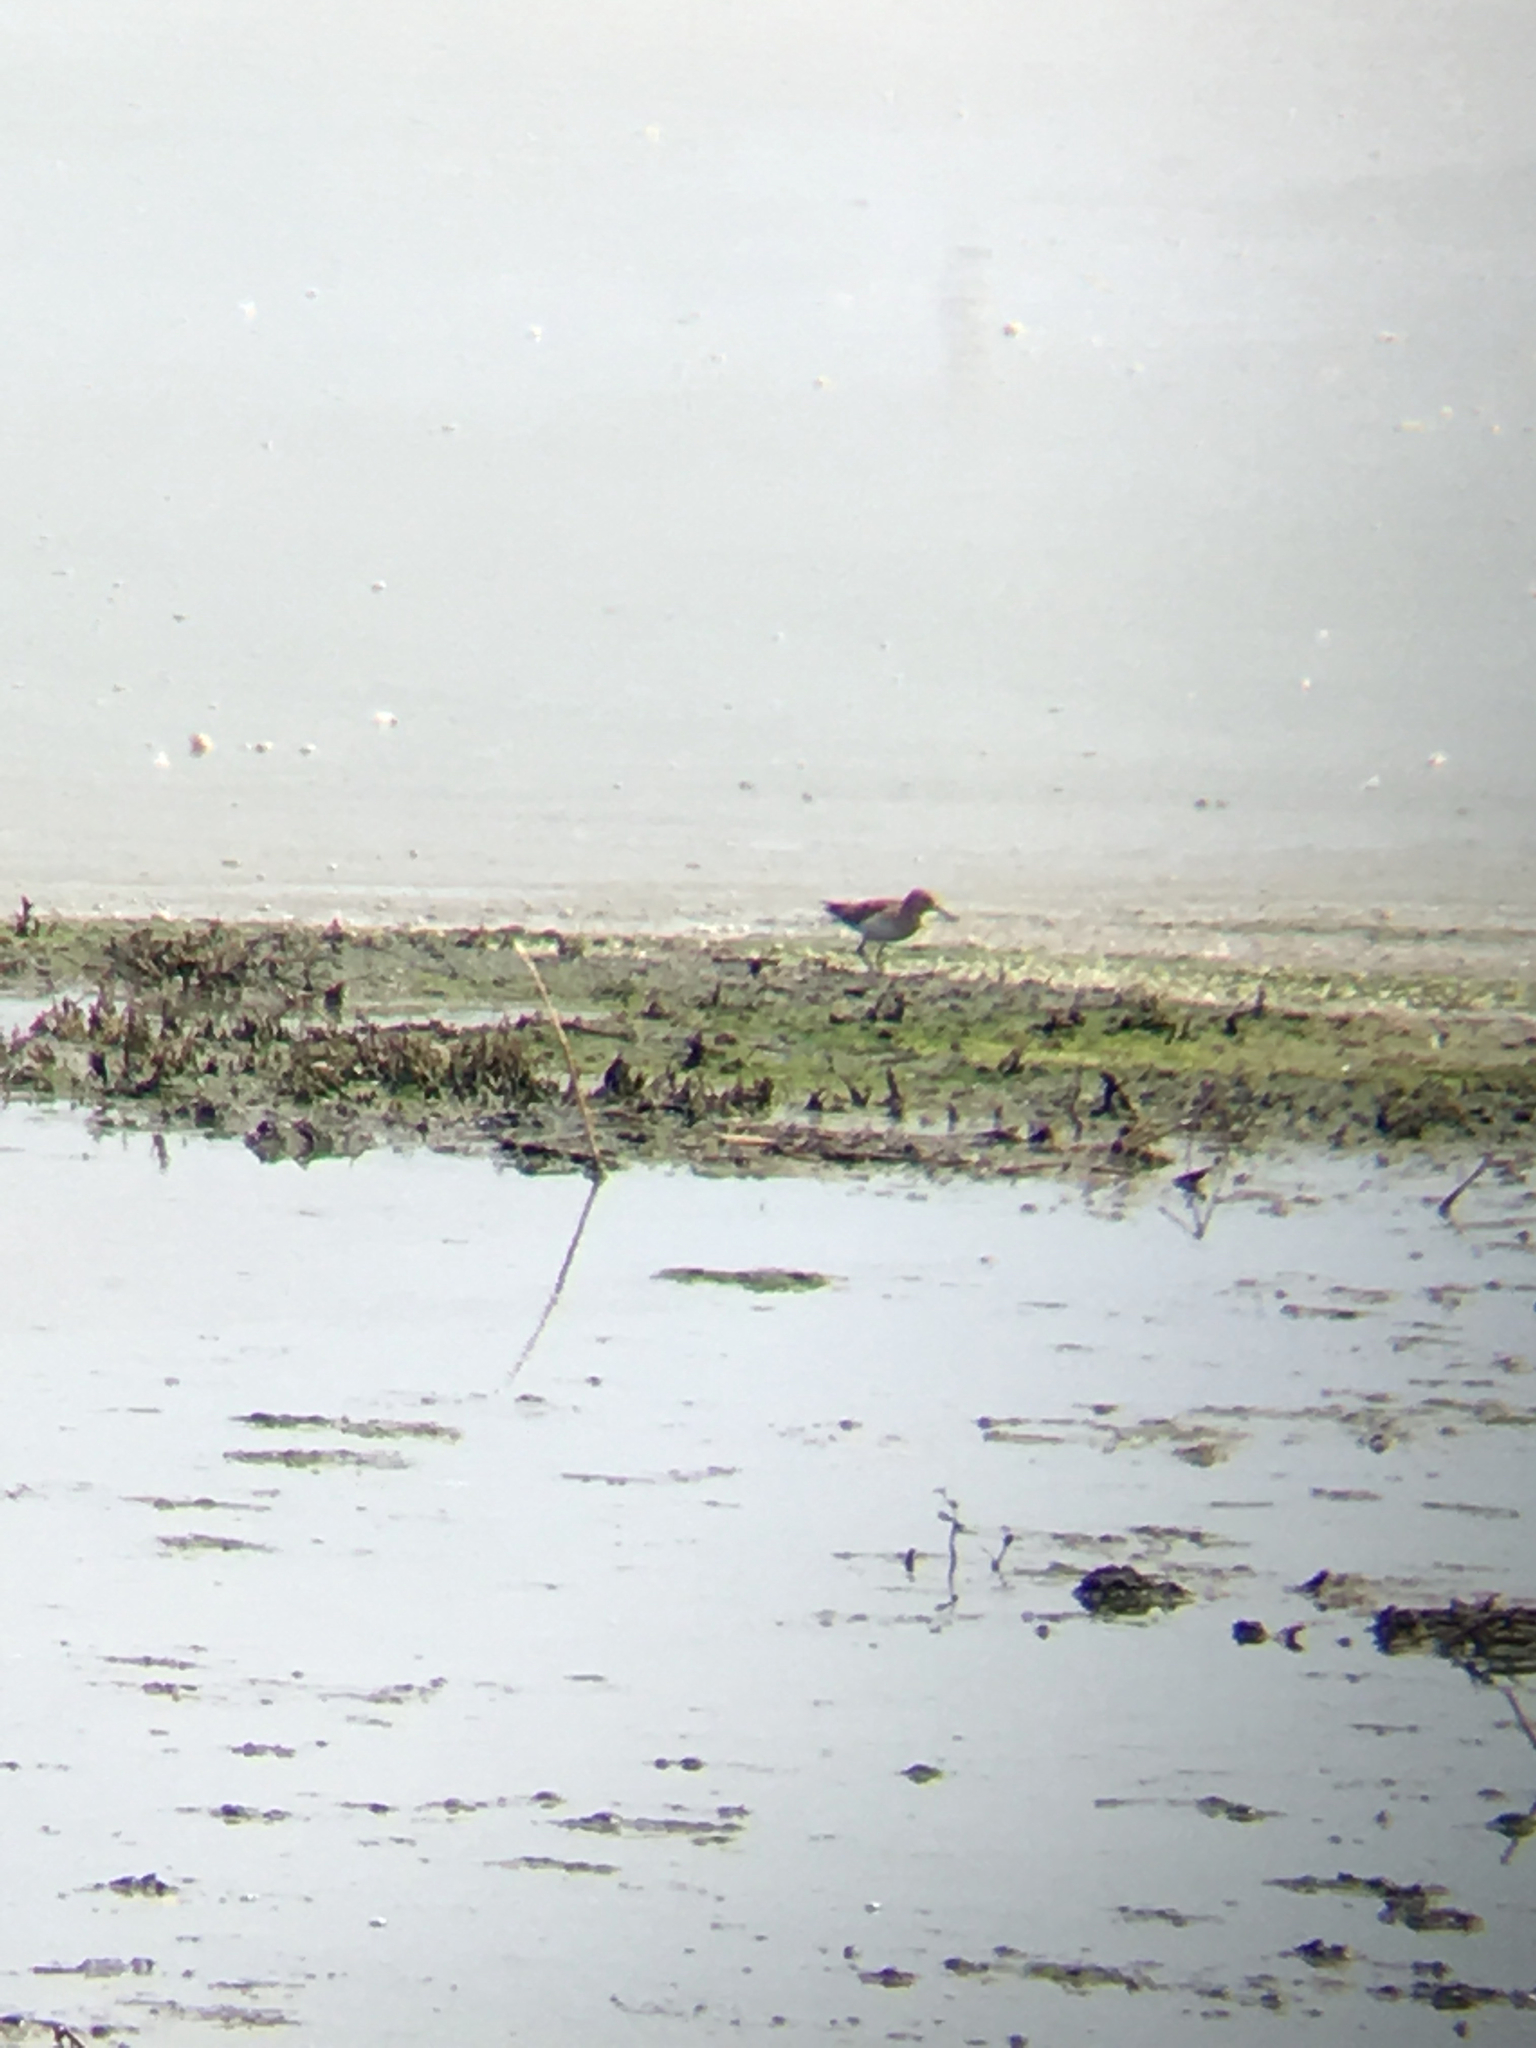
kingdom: Animalia
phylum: Chordata
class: Aves
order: Charadriiformes
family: Scolopacidae
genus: Calidris
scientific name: Calidris minutilla
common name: Least sandpiper
